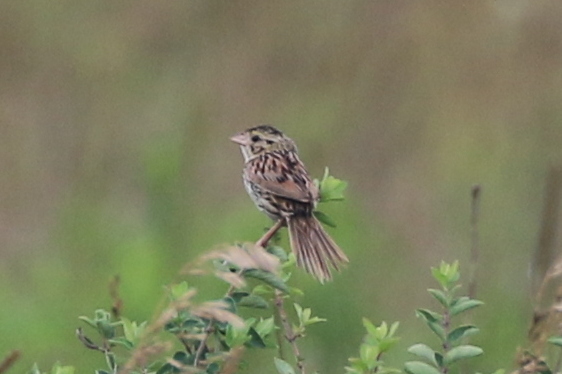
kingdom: Animalia
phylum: Chordata
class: Aves
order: Passeriformes
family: Passerellidae
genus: Centronyx
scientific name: Centronyx henslowii
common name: Henslow's sparrow
